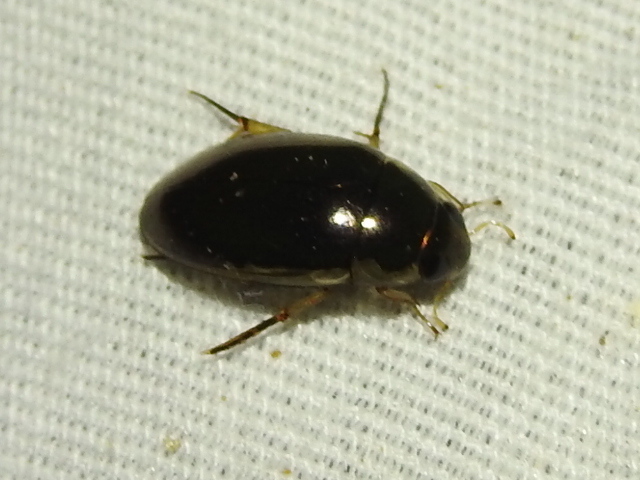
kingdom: Animalia
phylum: Arthropoda
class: Insecta
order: Coleoptera
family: Hydrophilidae
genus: Tropisternus
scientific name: Tropisternus lateralis
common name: Lateral-banded water scavenger beetle
